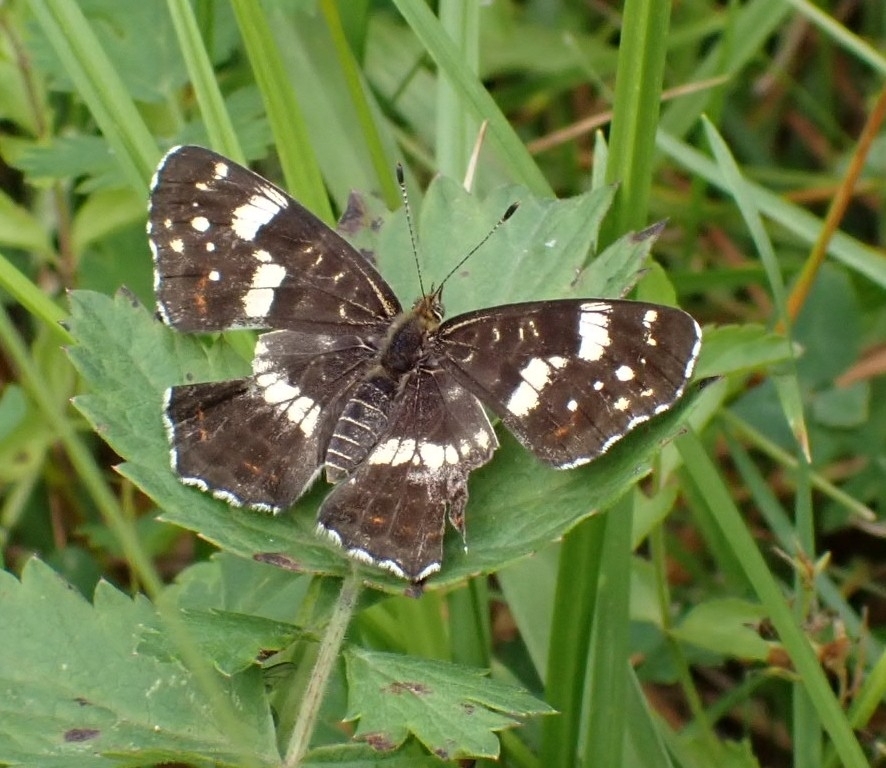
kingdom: Animalia
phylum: Arthropoda
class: Insecta
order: Lepidoptera
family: Nymphalidae
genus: Araschnia
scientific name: Araschnia levana
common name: Map butterfly
